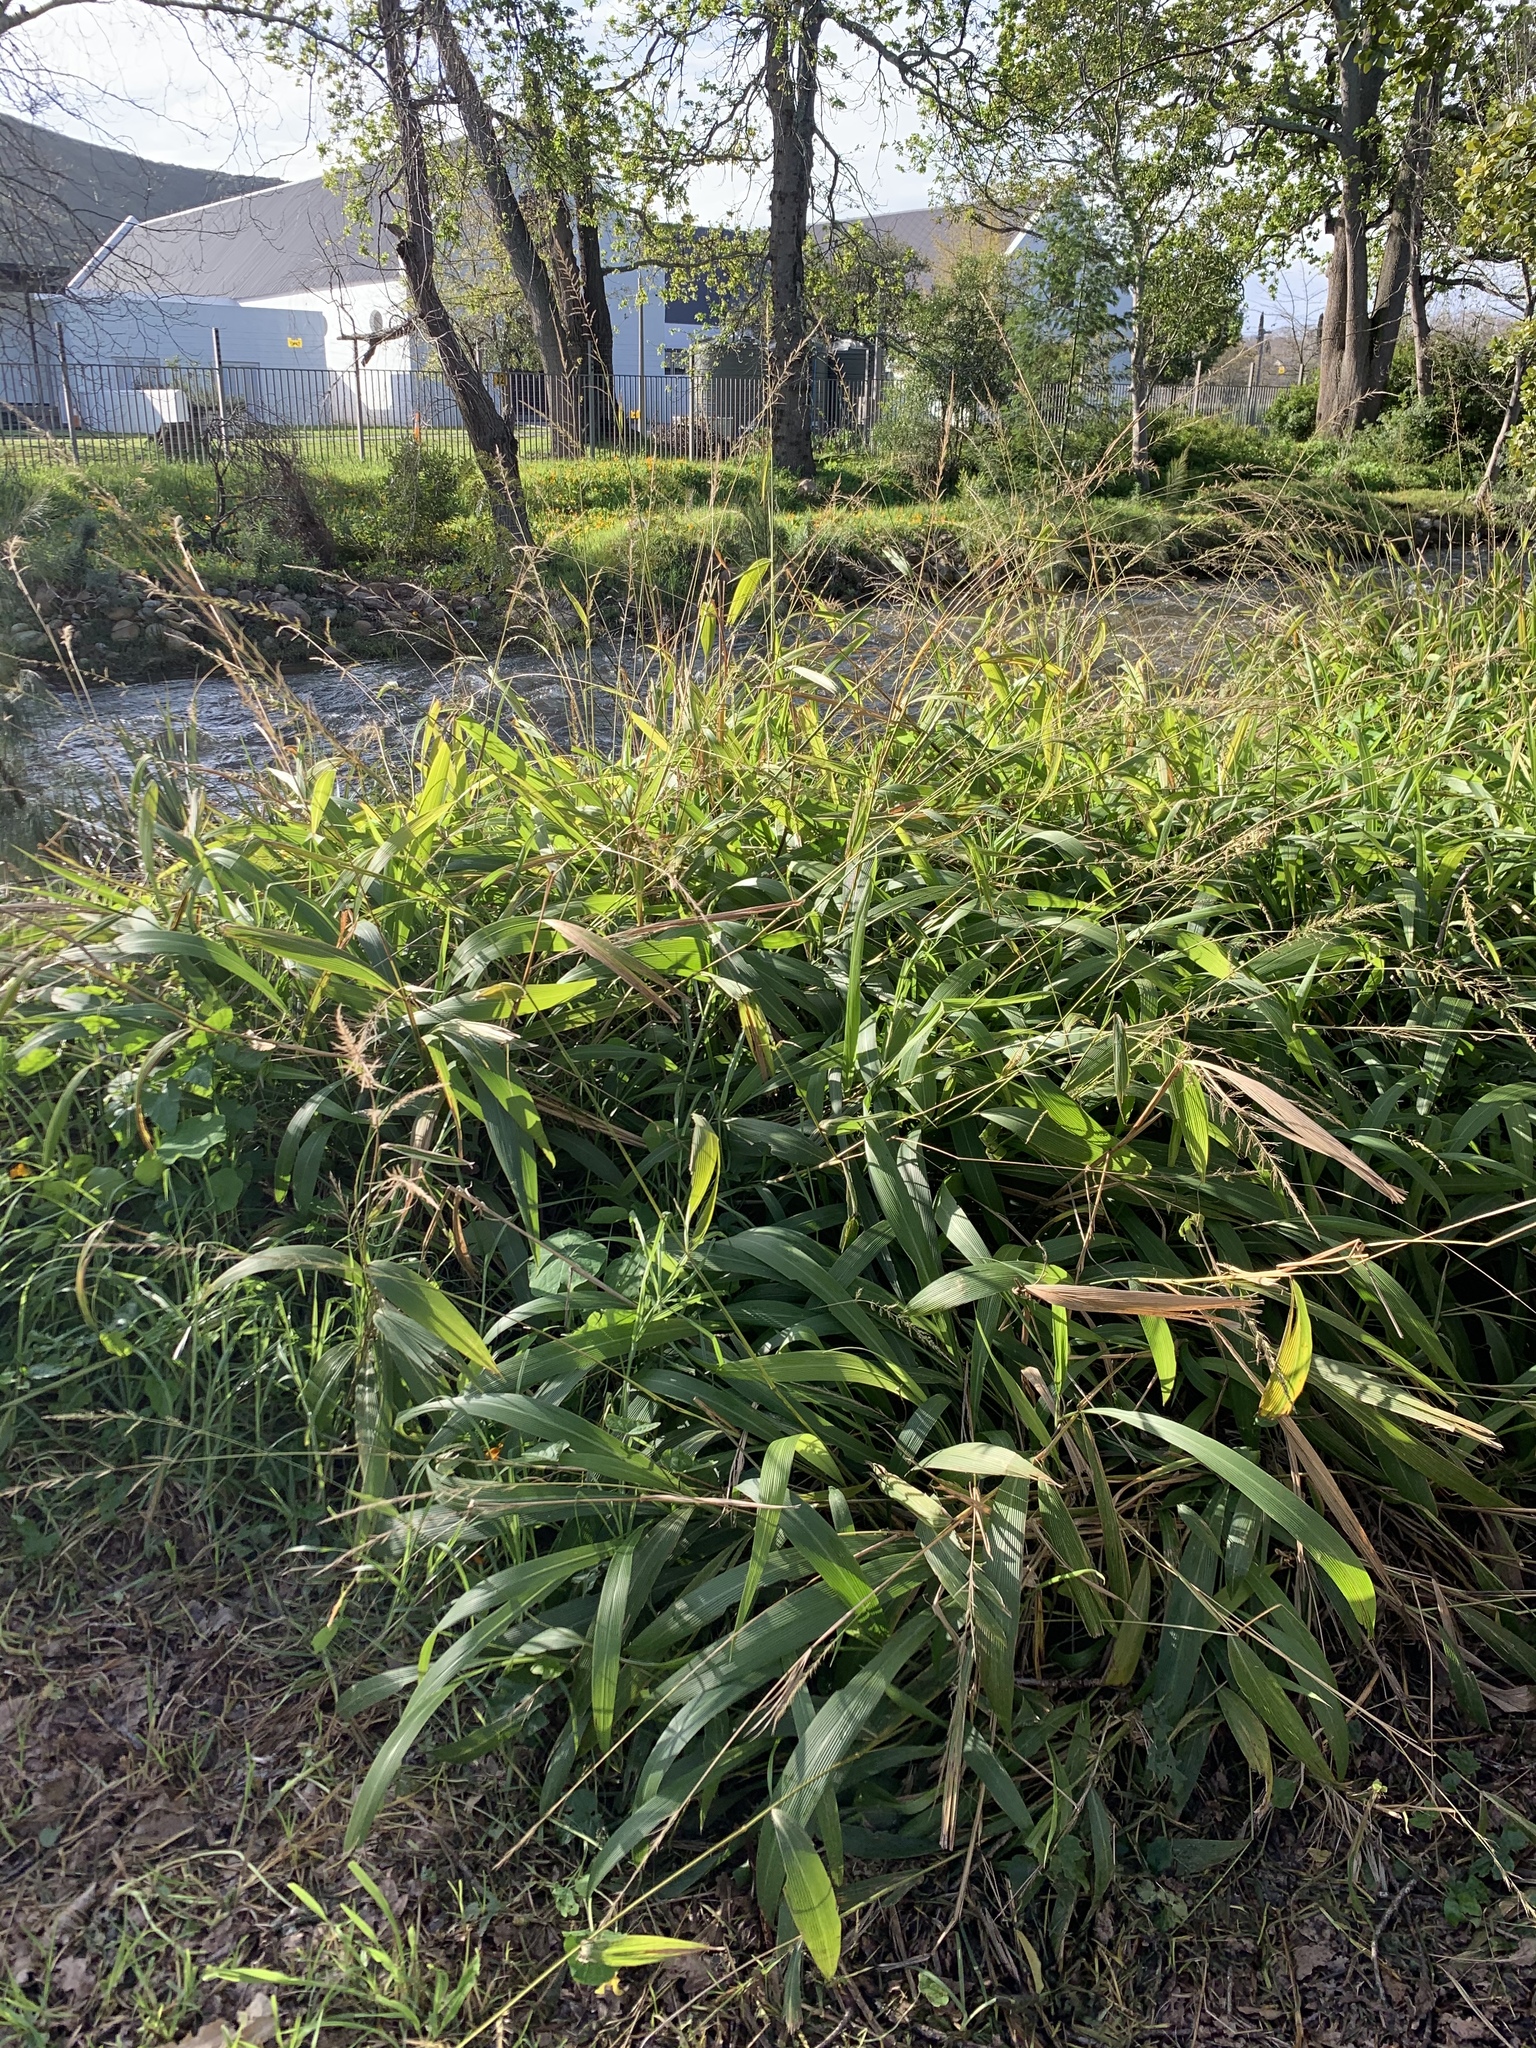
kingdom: Plantae
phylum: Tracheophyta
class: Liliopsida
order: Poales
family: Poaceae
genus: Setaria
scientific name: Setaria megaphylla
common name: Bigleaf bristlegrass
